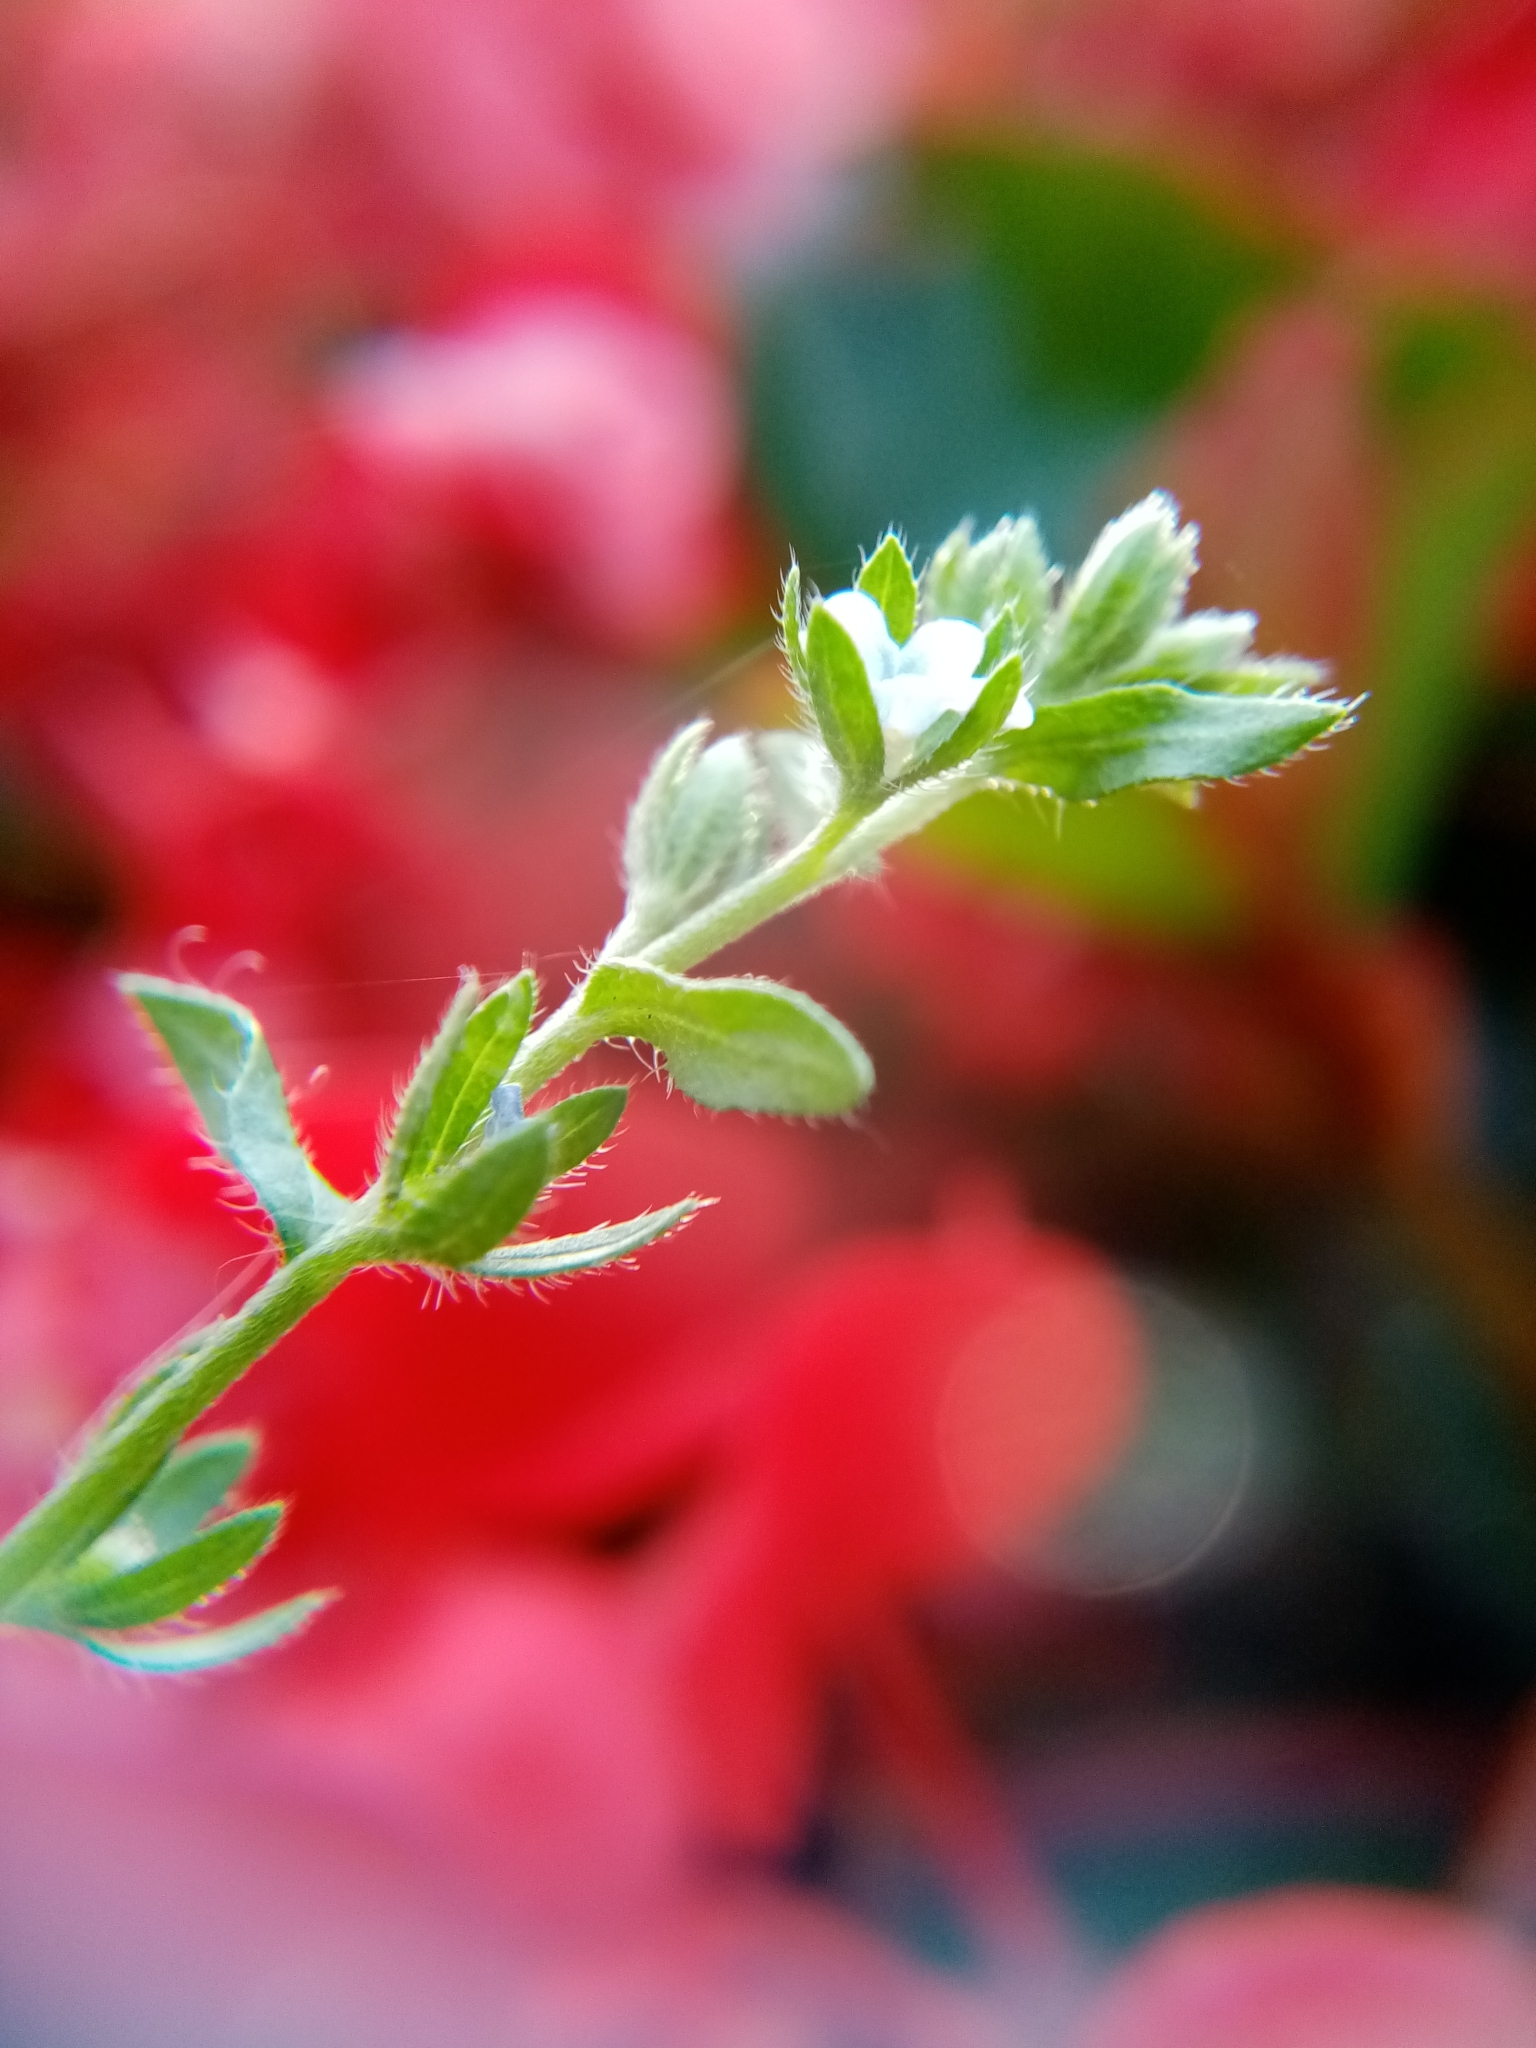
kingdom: Plantae
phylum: Tracheophyta
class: Magnoliopsida
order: Boraginales
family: Boraginaceae
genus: Lappula
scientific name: Lappula squarrosa
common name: European stickseed
